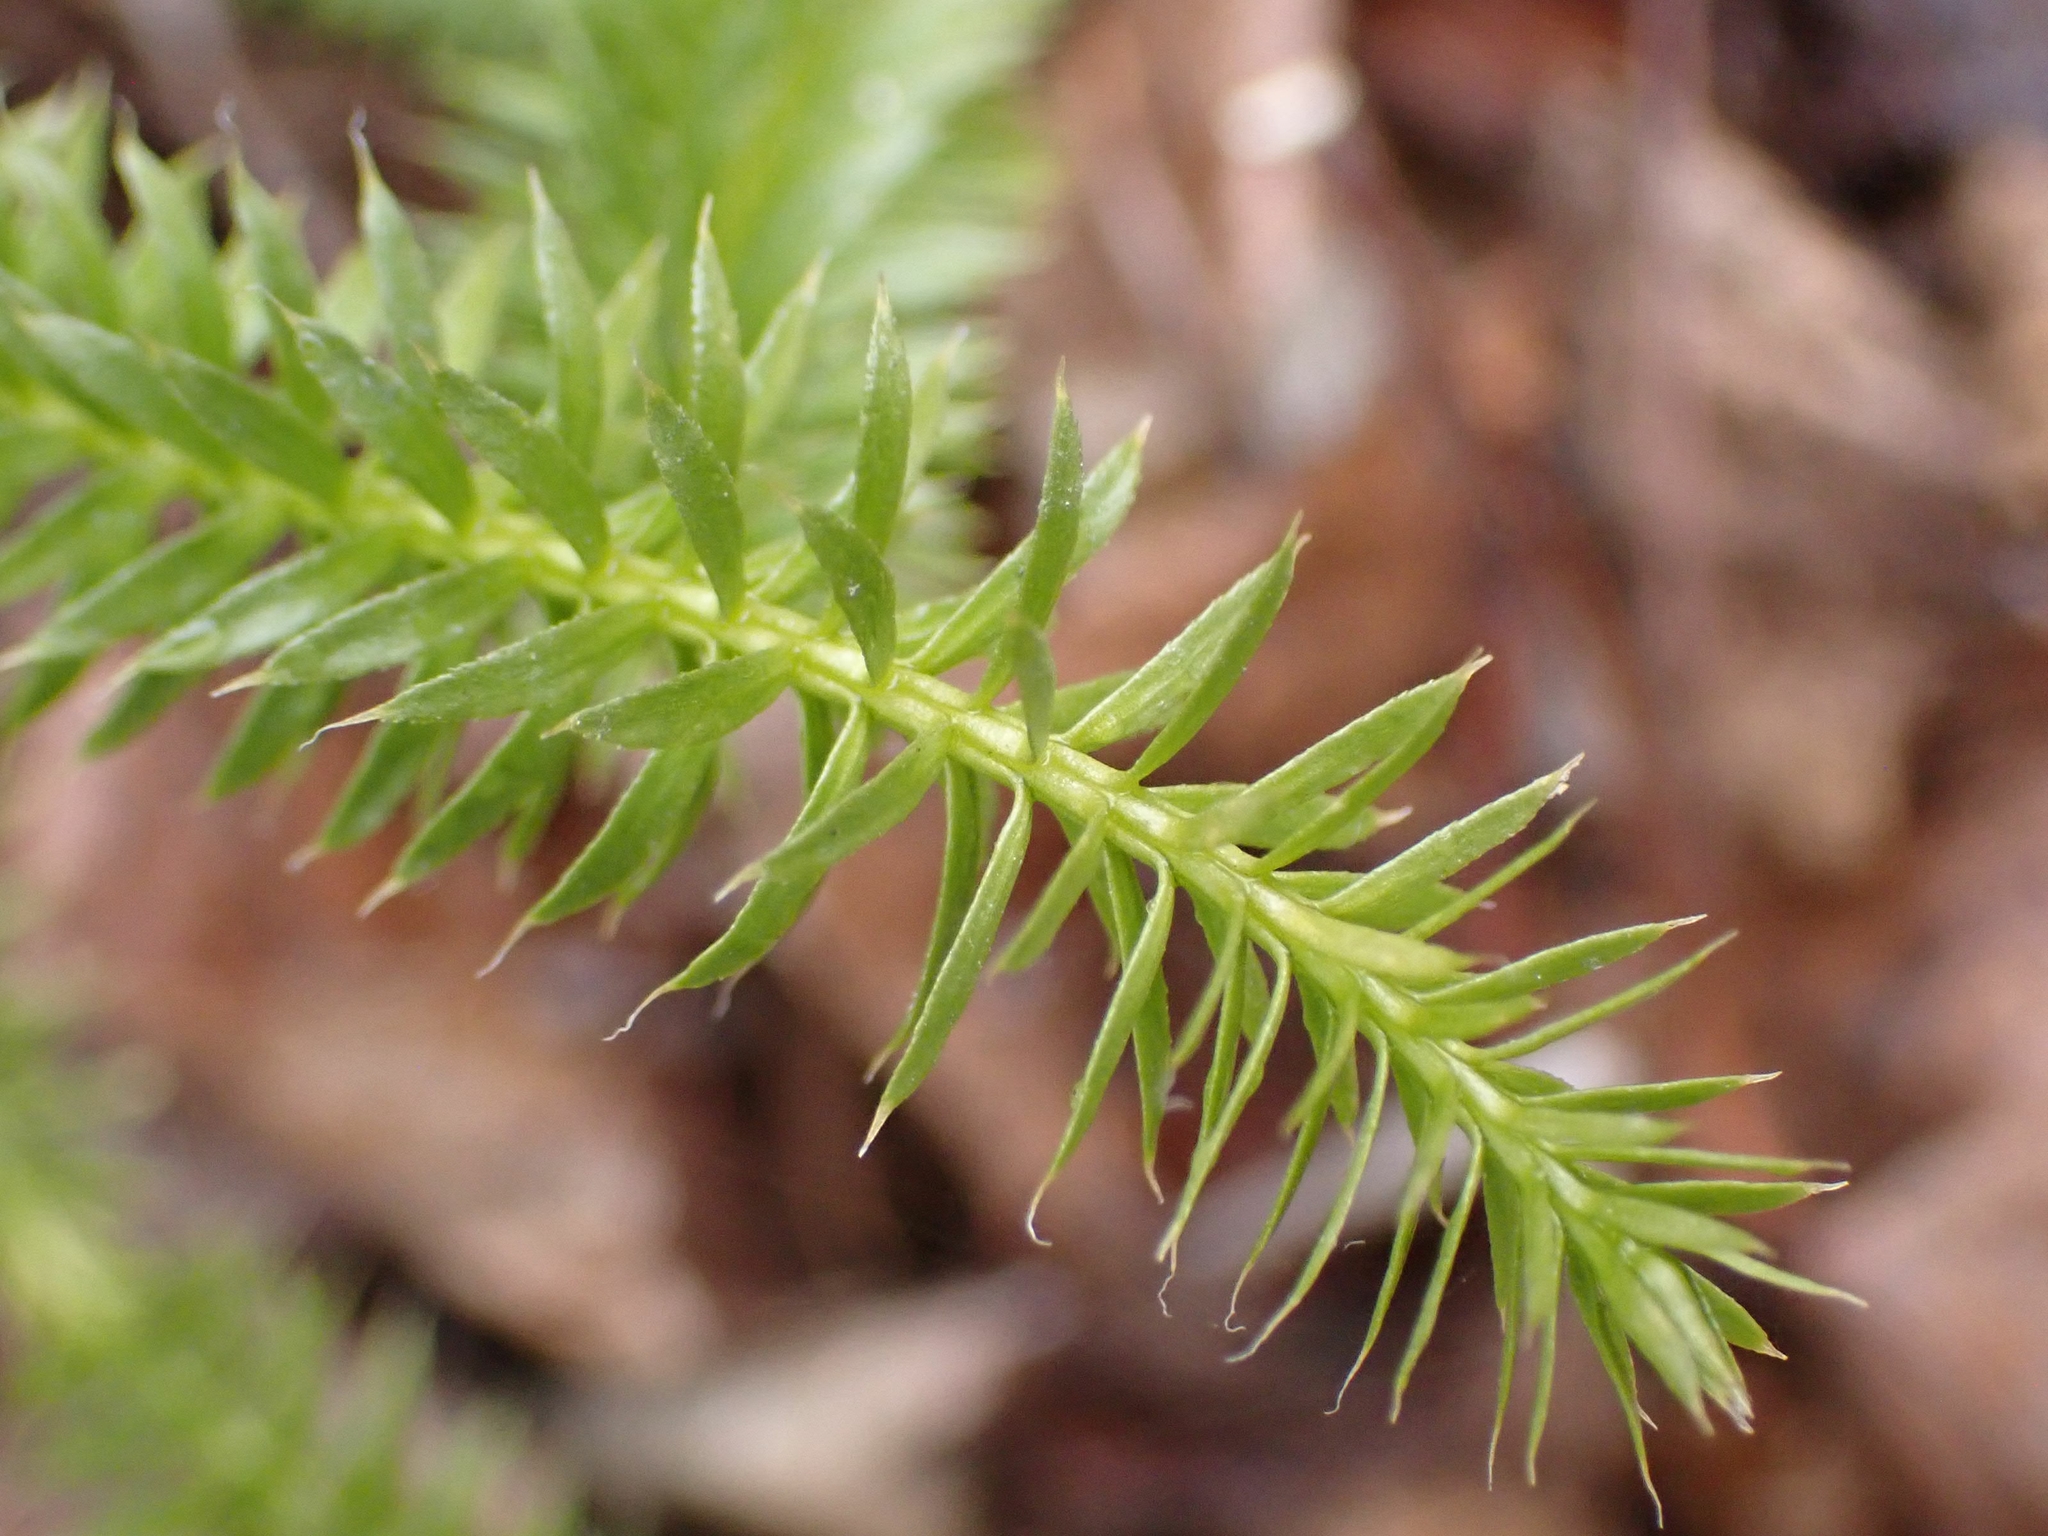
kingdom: Plantae
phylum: Tracheophyta
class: Lycopodiopsida
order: Lycopodiales
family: Lycopodiaceae
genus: Spinulum
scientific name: Spinulum annotinum
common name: Interrupted club-moss
